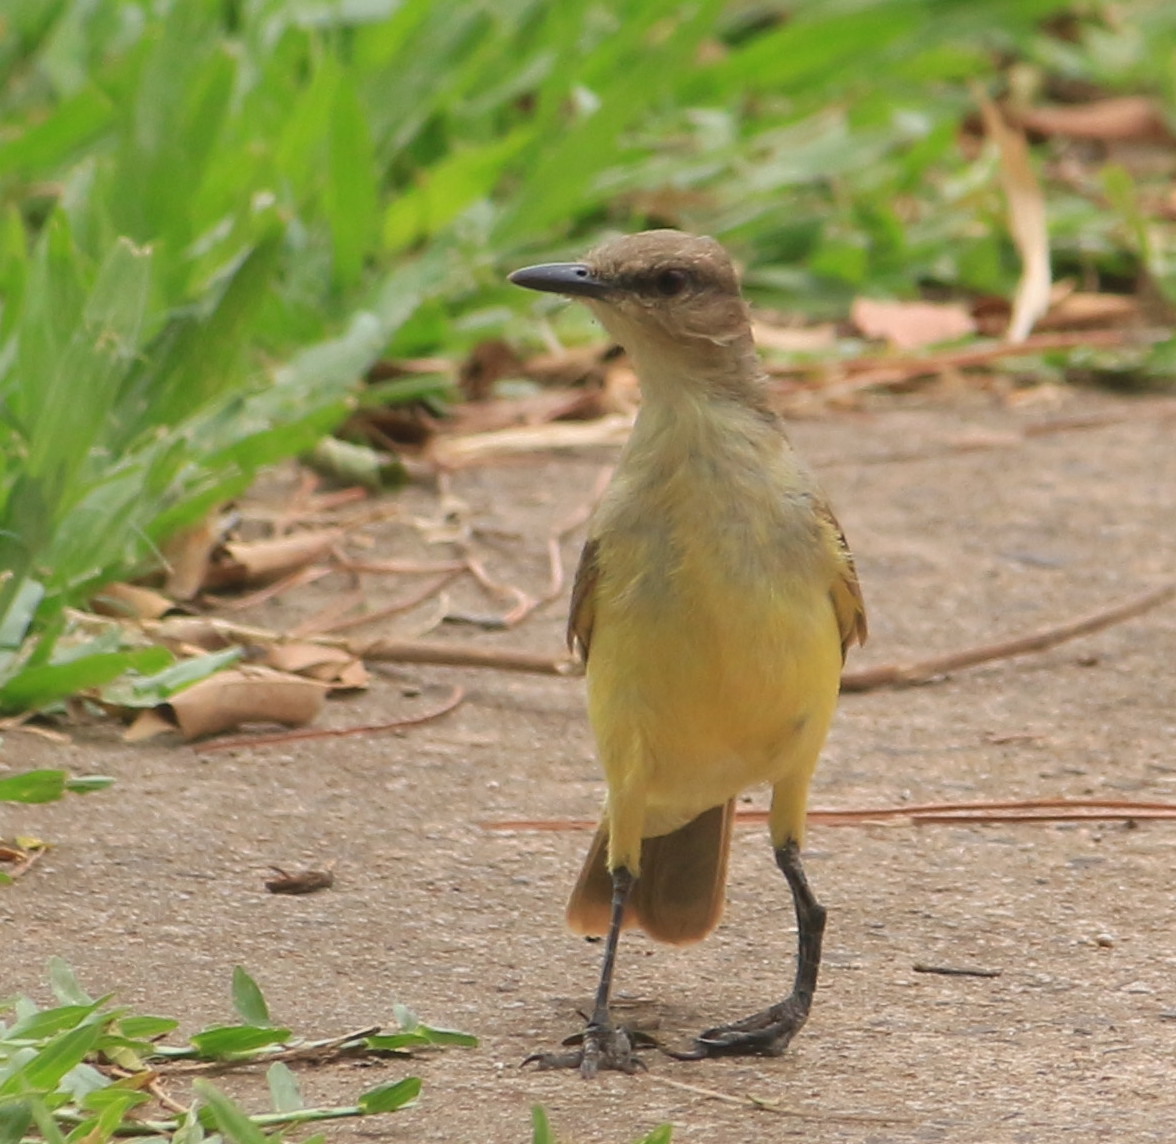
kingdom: Animalia
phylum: Chordata
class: Aves
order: Passeriformes
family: Tyrannidae
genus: Machetornis
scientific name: Machetornis rixosa
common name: Cattle tyrant
